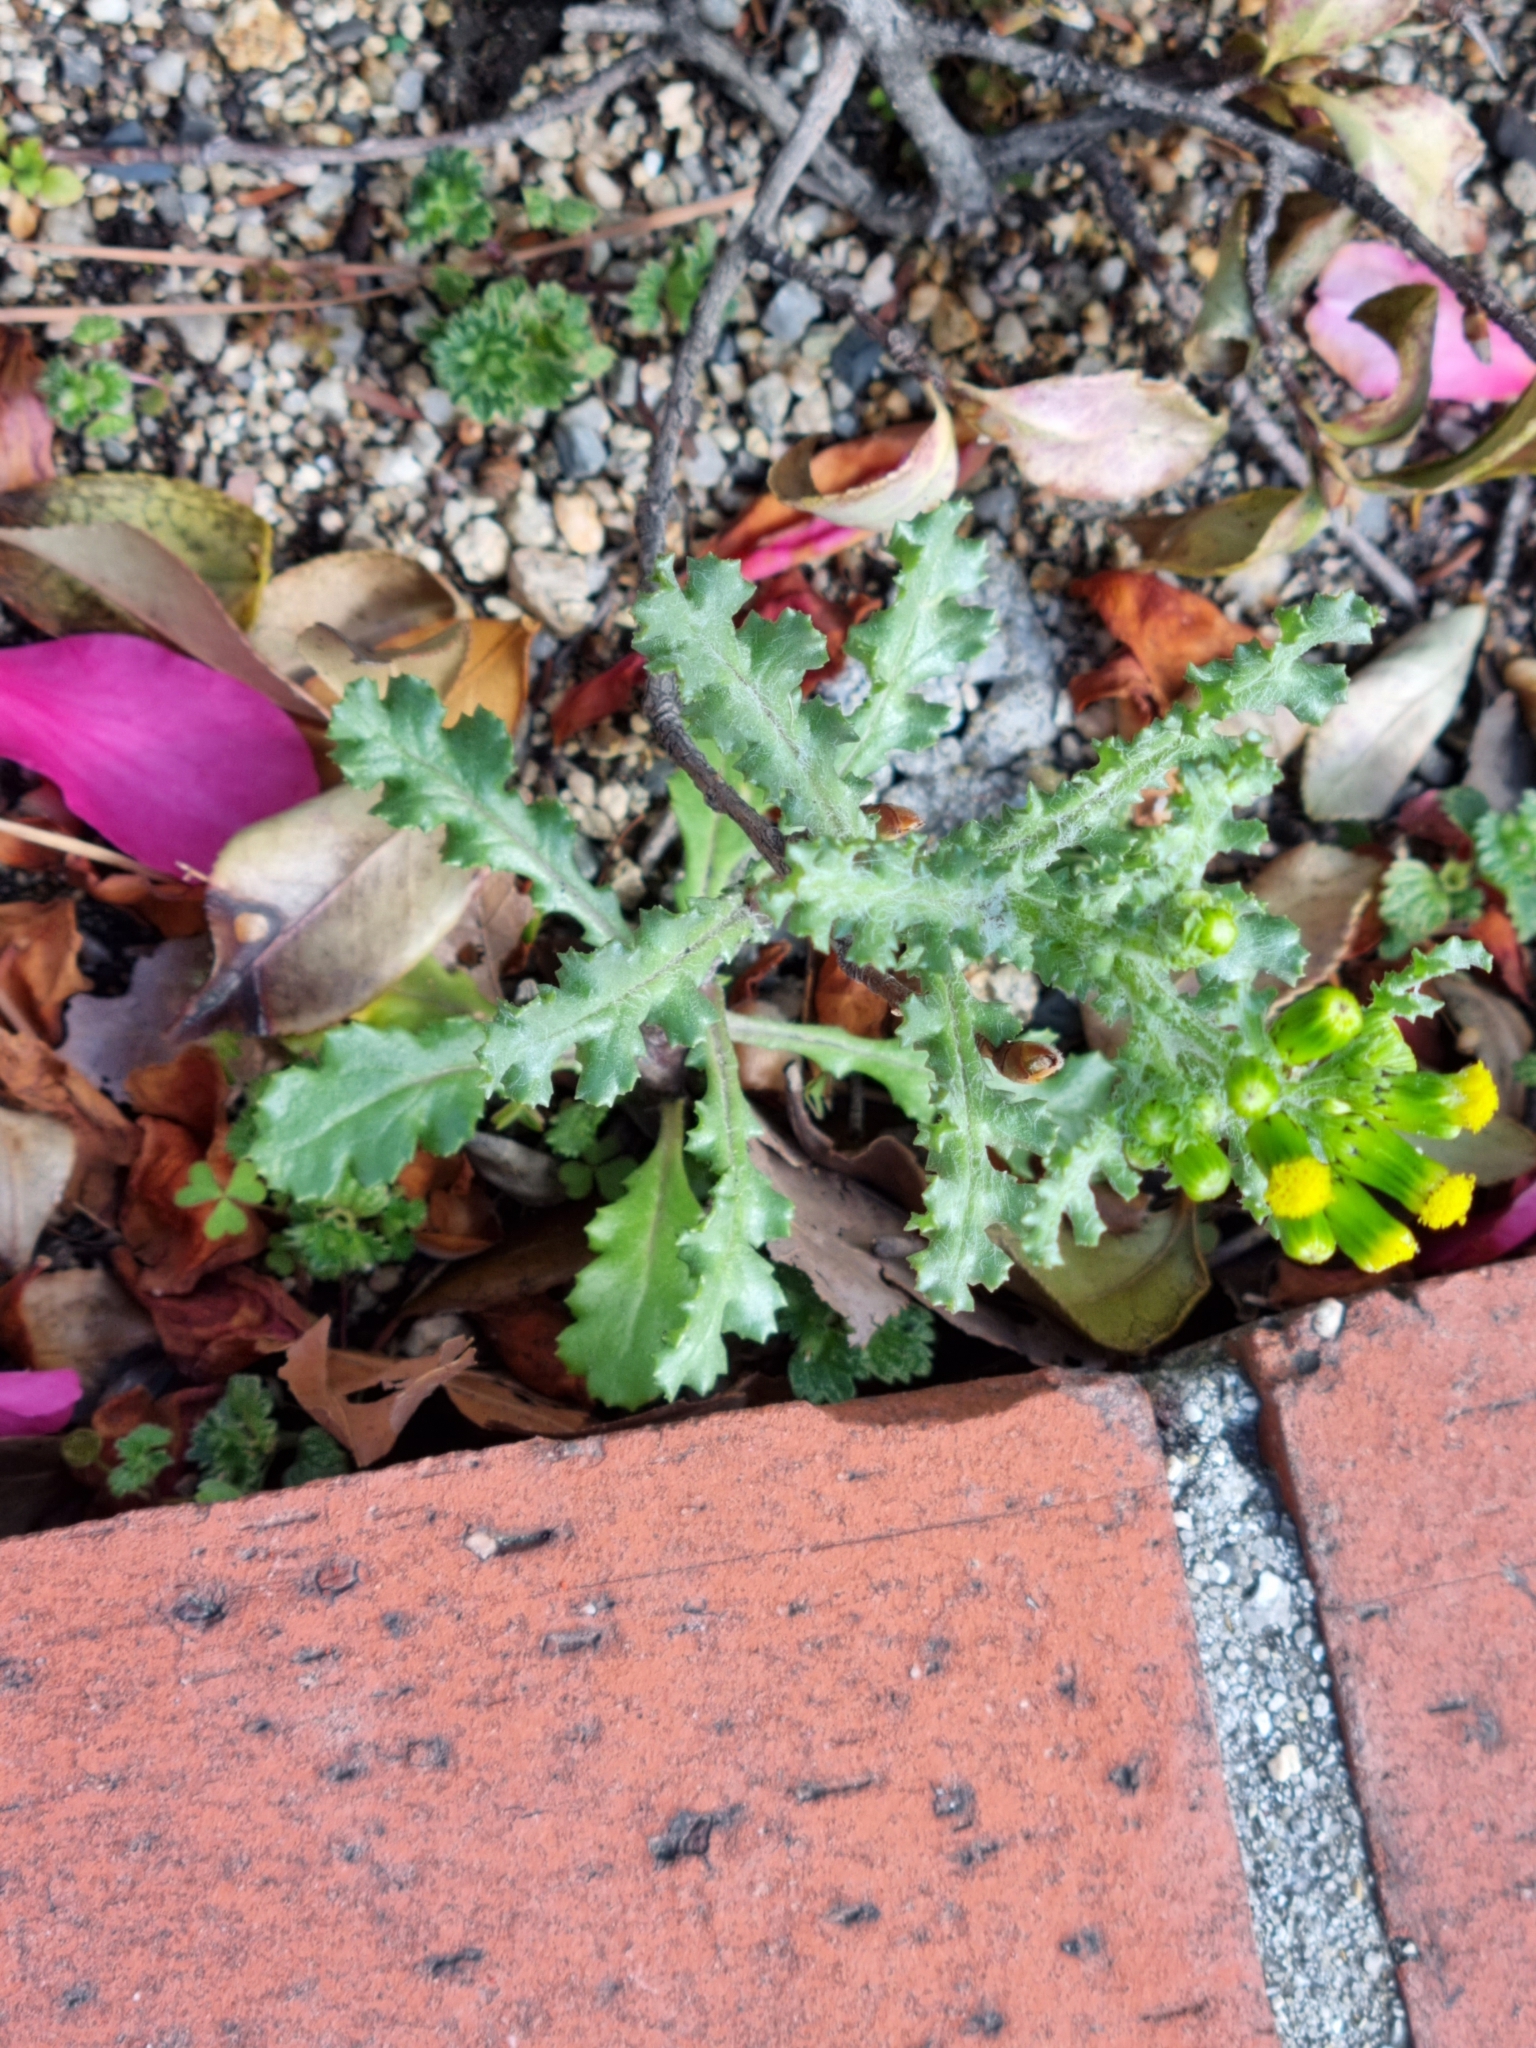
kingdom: Plantae
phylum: Tracheophyta
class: Magnoliopsida
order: Asterales
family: Asteraceae
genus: Senecio
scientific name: Senecio vulgaris
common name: Old-man-in-the-spring
